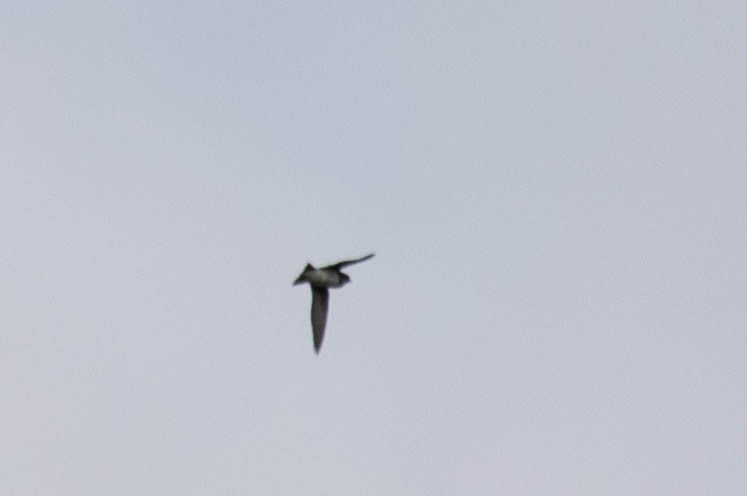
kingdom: Animalia
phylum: Chordata
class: Aves
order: Passeriformes
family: Hirundinidae
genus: Riparia
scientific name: Riparia riparia
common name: Sand martin
